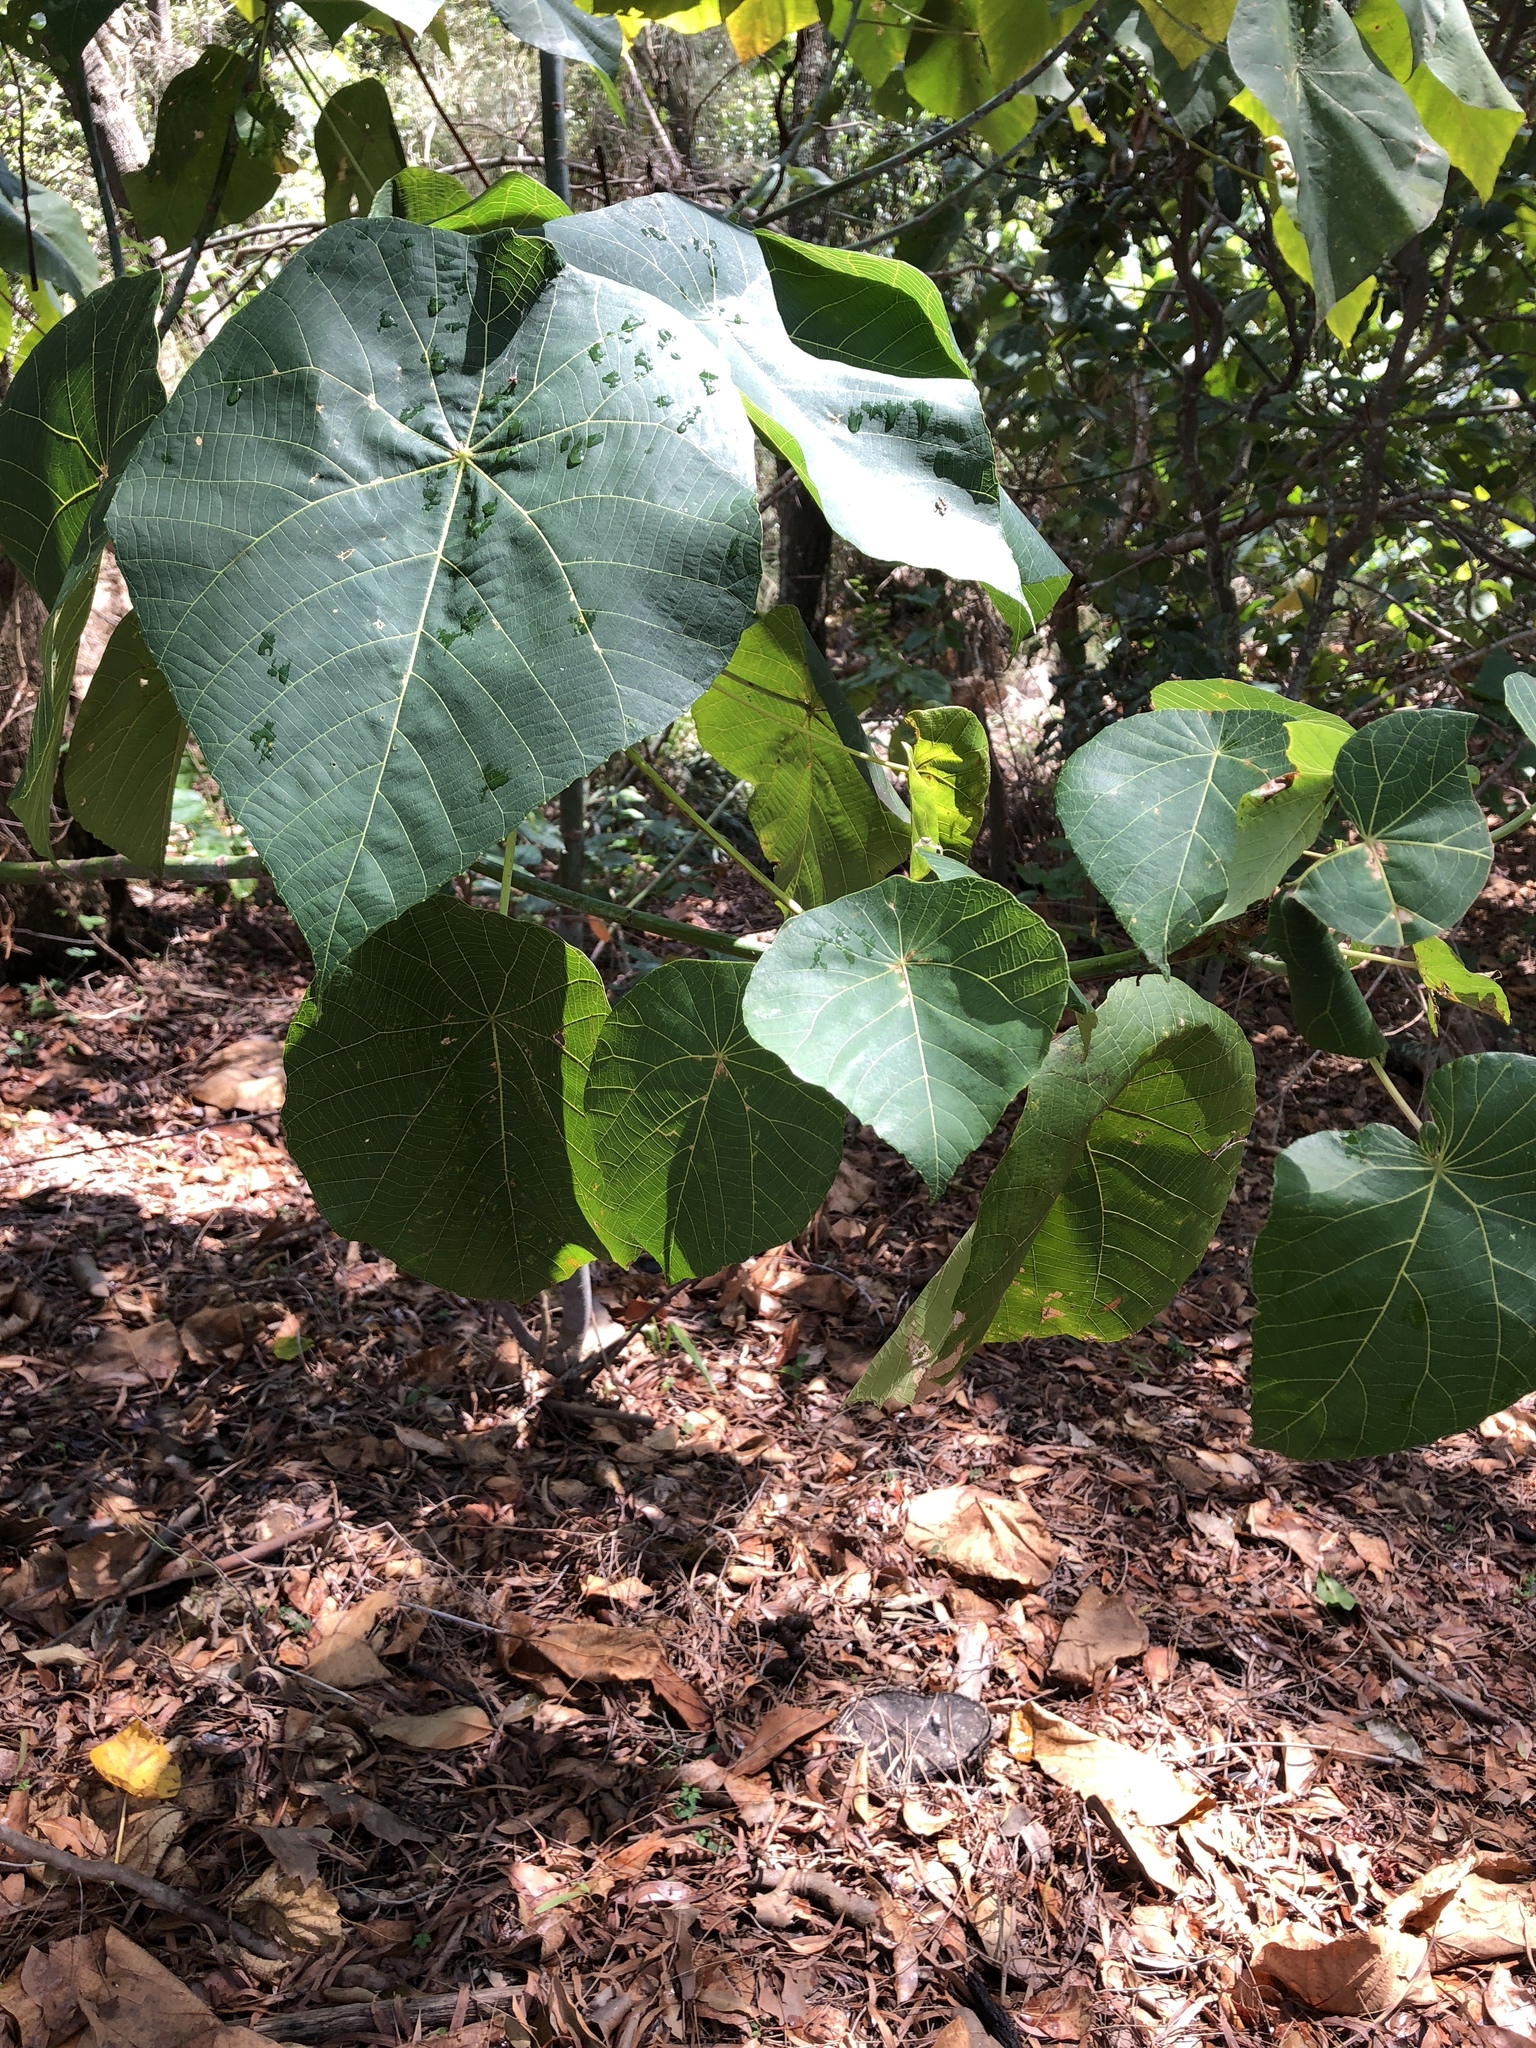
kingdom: Plantae
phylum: Tracheophyta
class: Magnoliopsida
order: Malpighiales
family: Euphorbiaceae
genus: Macaranga
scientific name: Macaranga tanarius
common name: Parasol leaf tree
